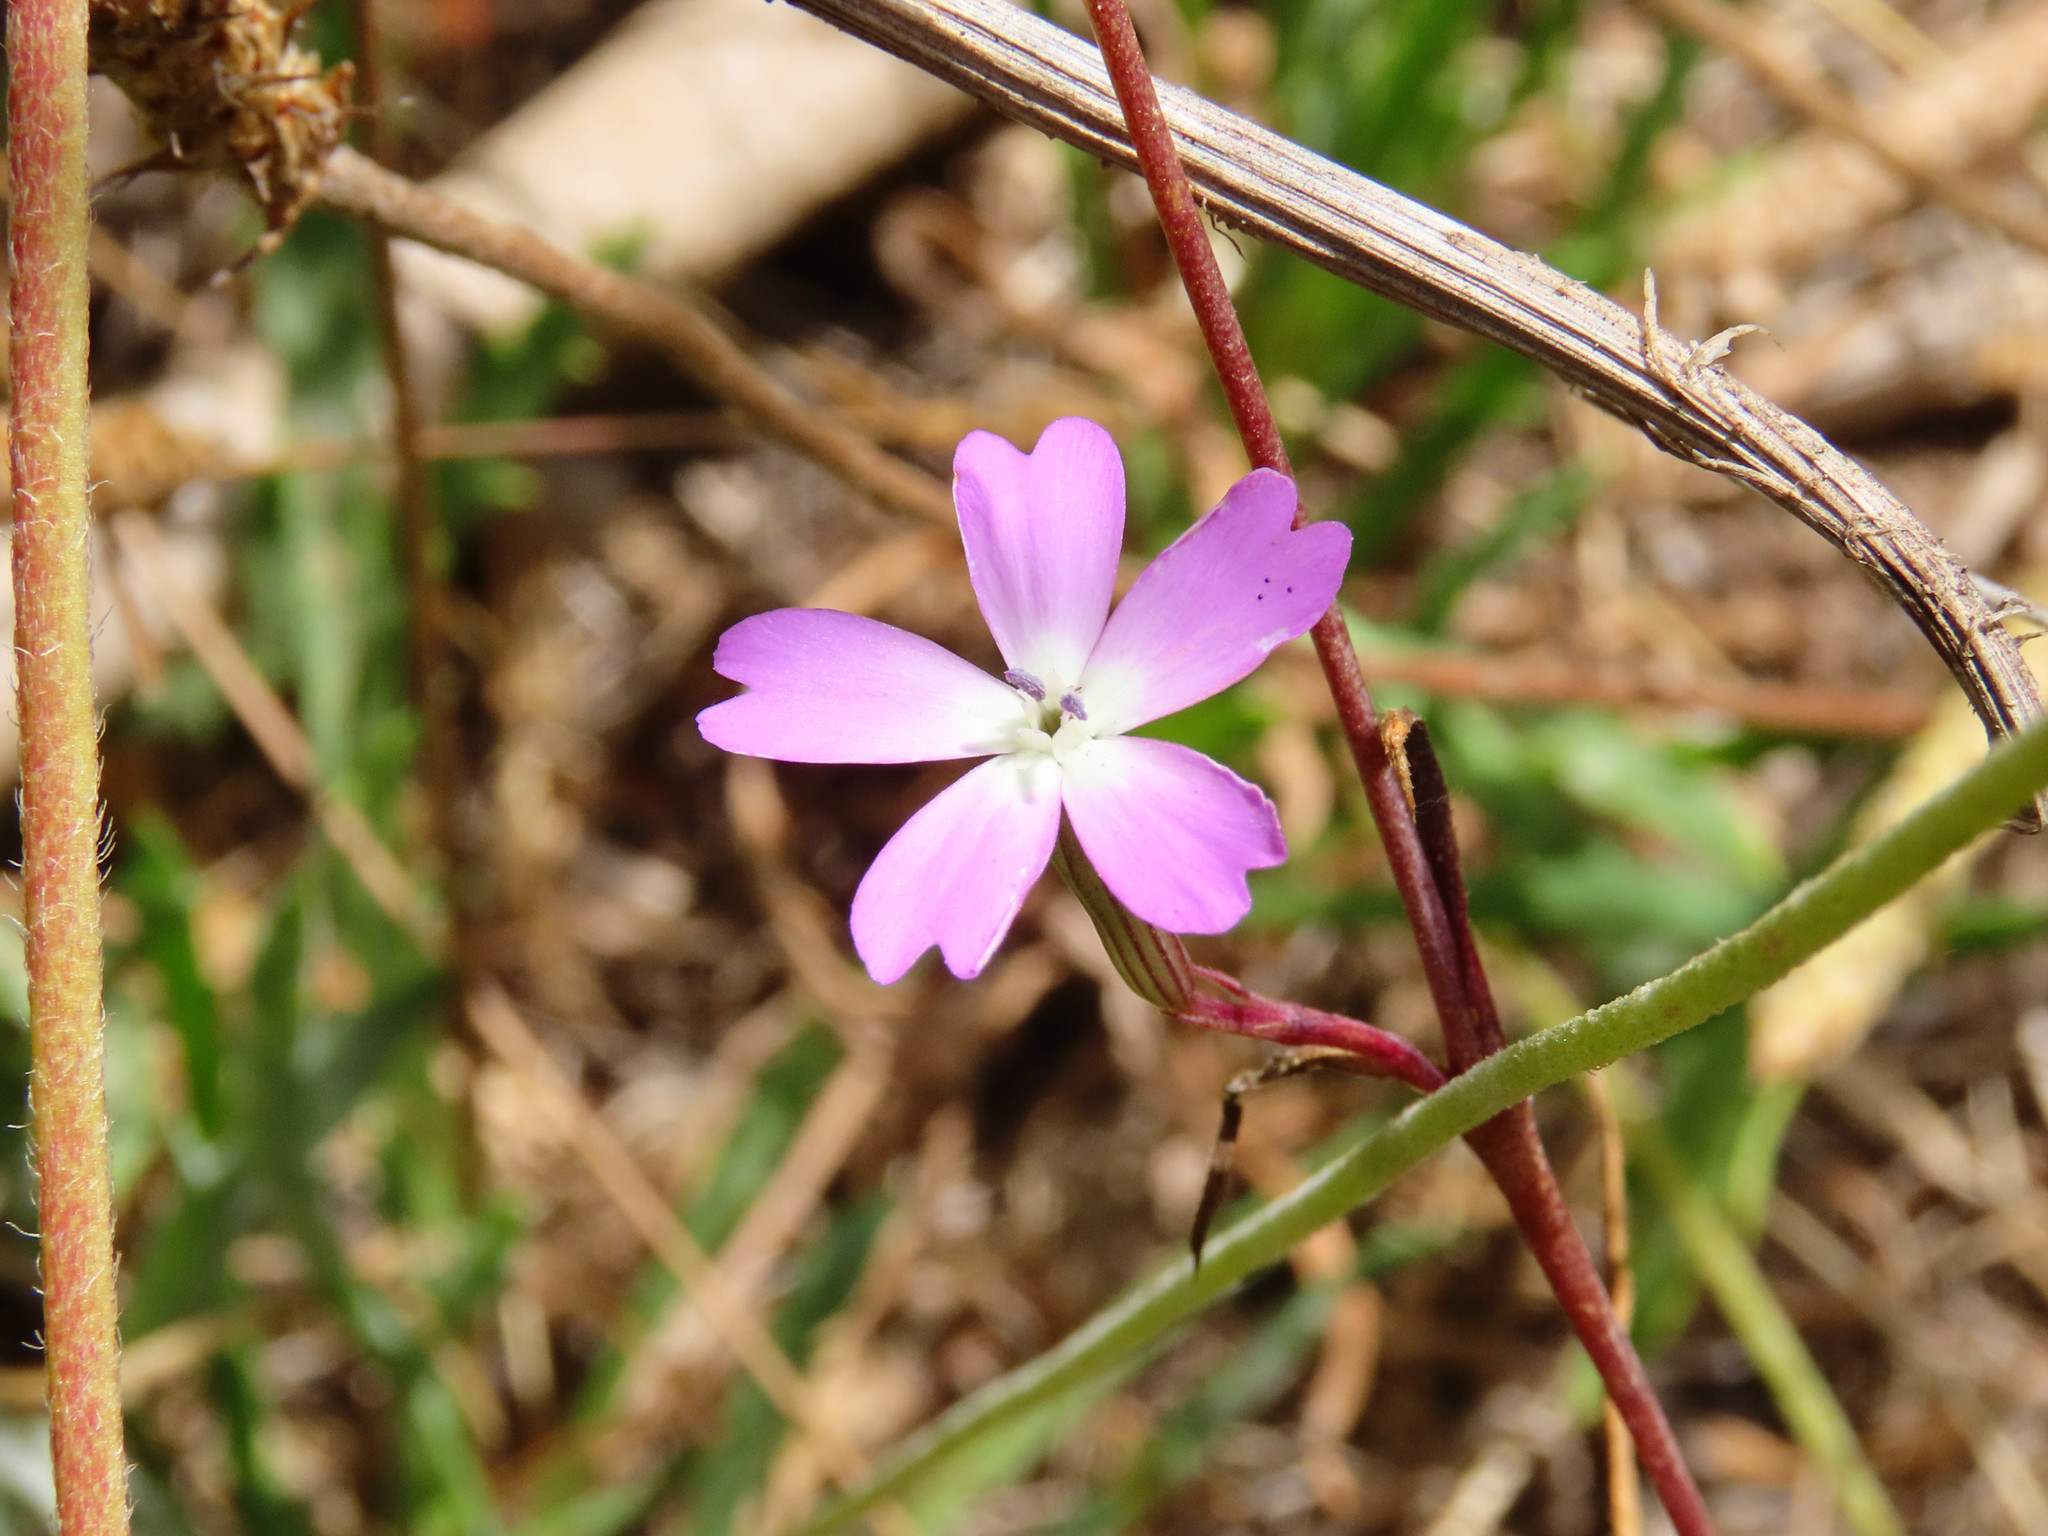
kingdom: Plantae
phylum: Tracheophyta
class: Magnoliopsida
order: Caryophyllales
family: Caryophyllaceae
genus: Eudianthe
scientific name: Eudianthe coeli-rosa
